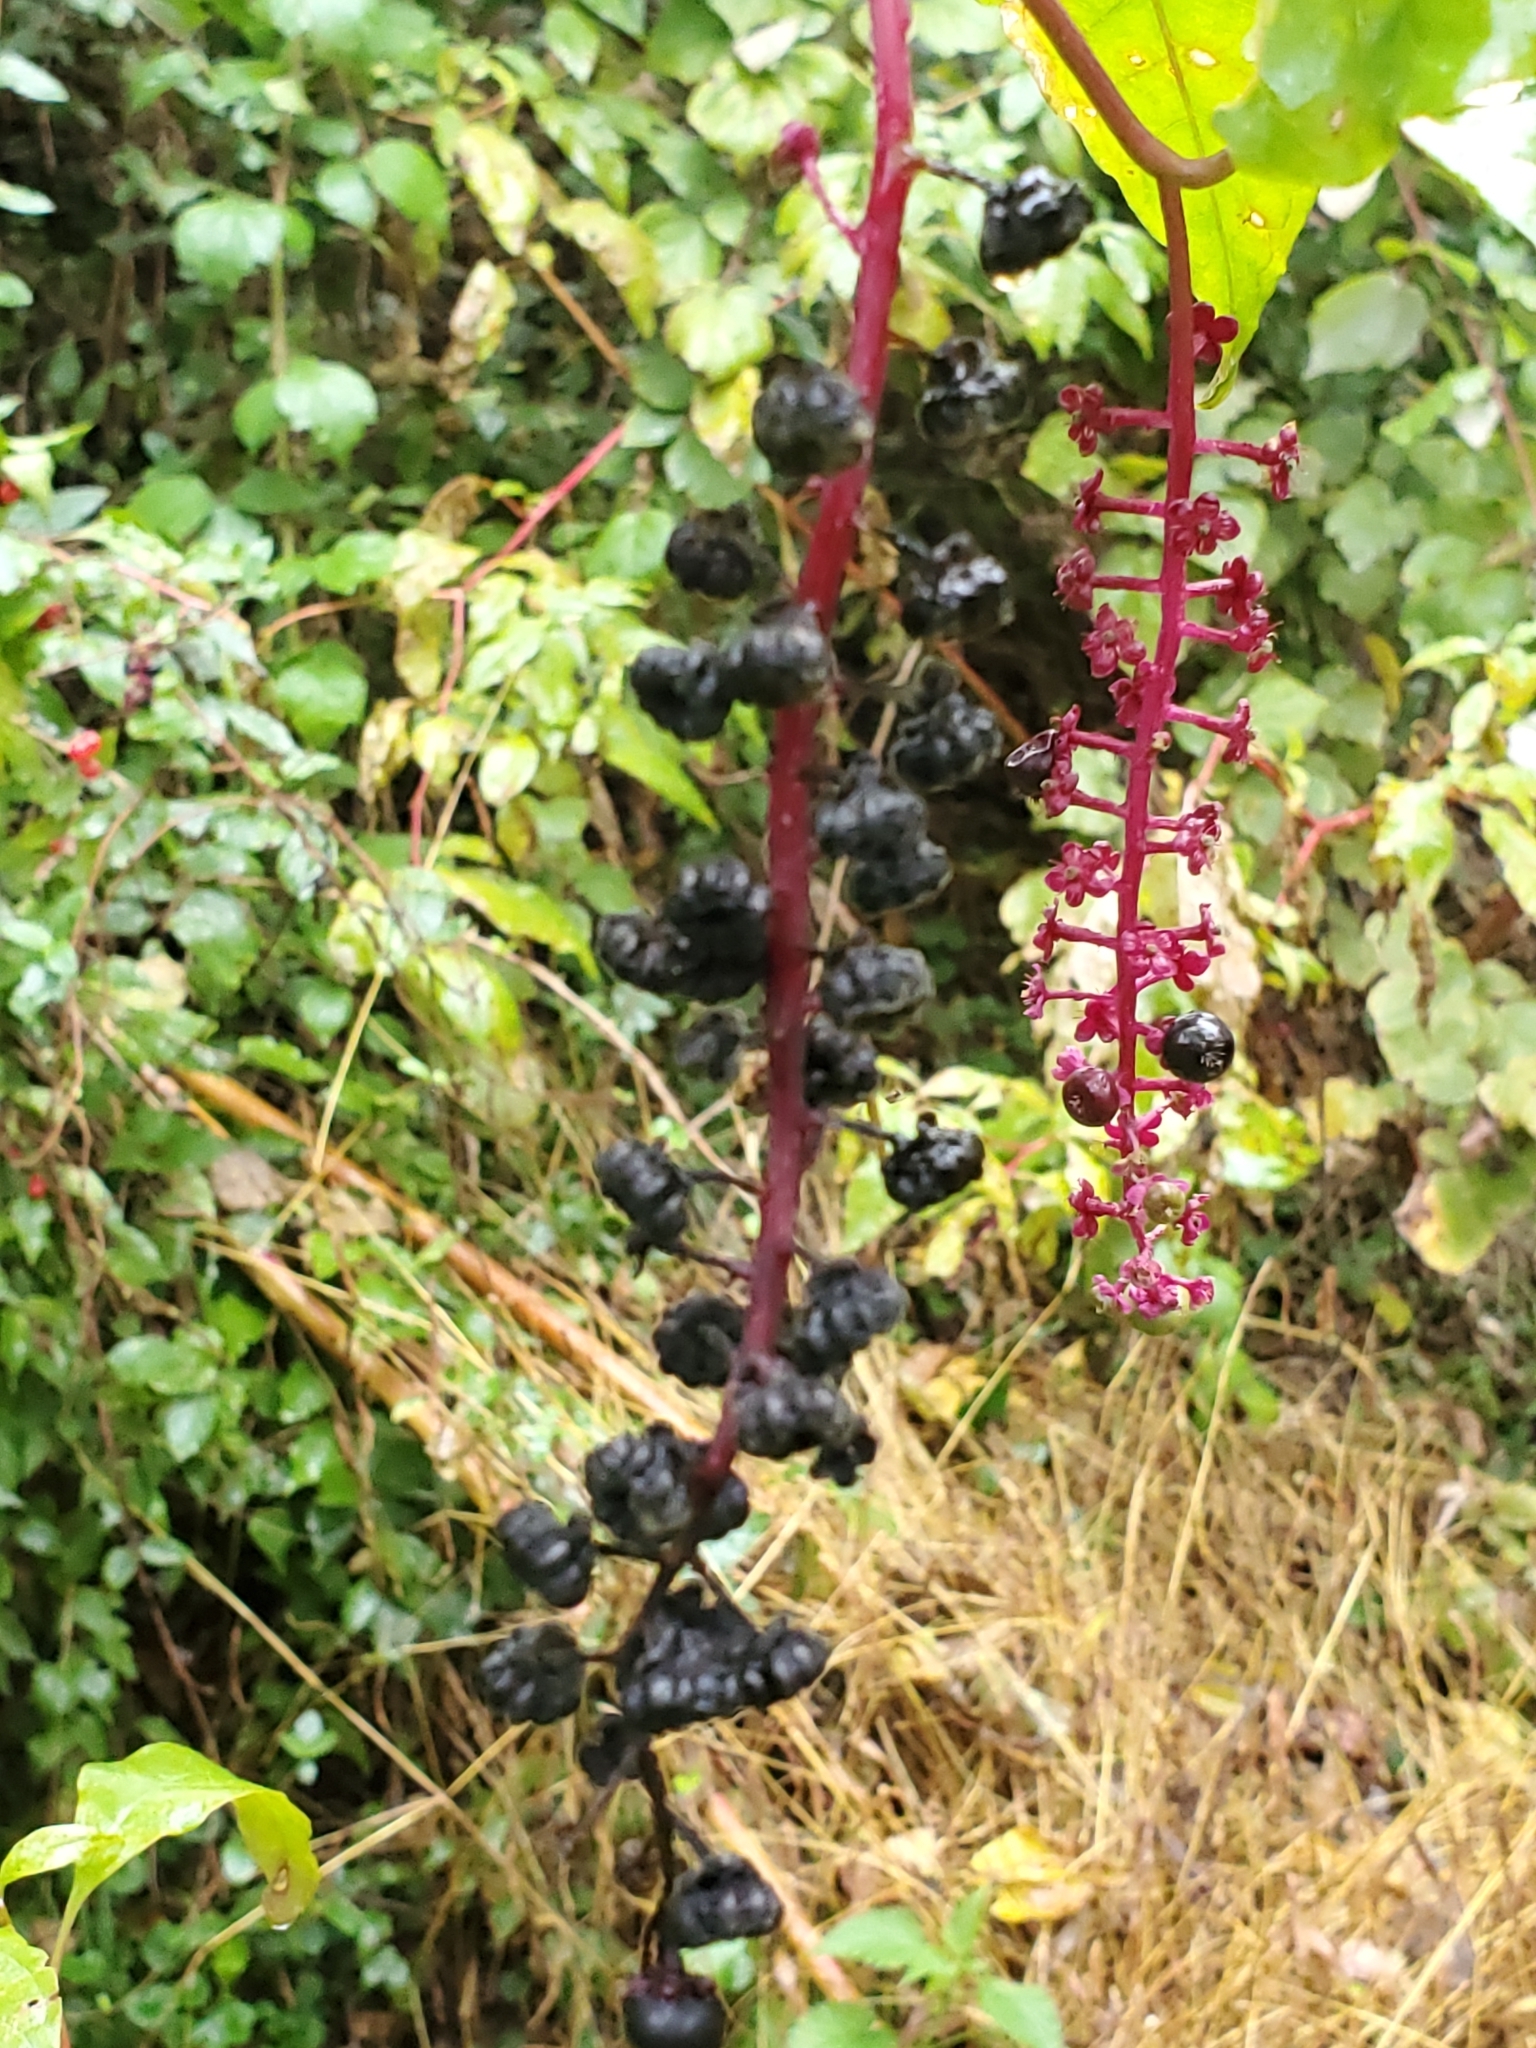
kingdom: Plantae
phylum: Tracheophyta
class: Magnoliopsida
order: Caryophyllales
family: Phytolaccaceae
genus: Phytolacca
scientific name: Phytolacca americana
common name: American pokeweed
